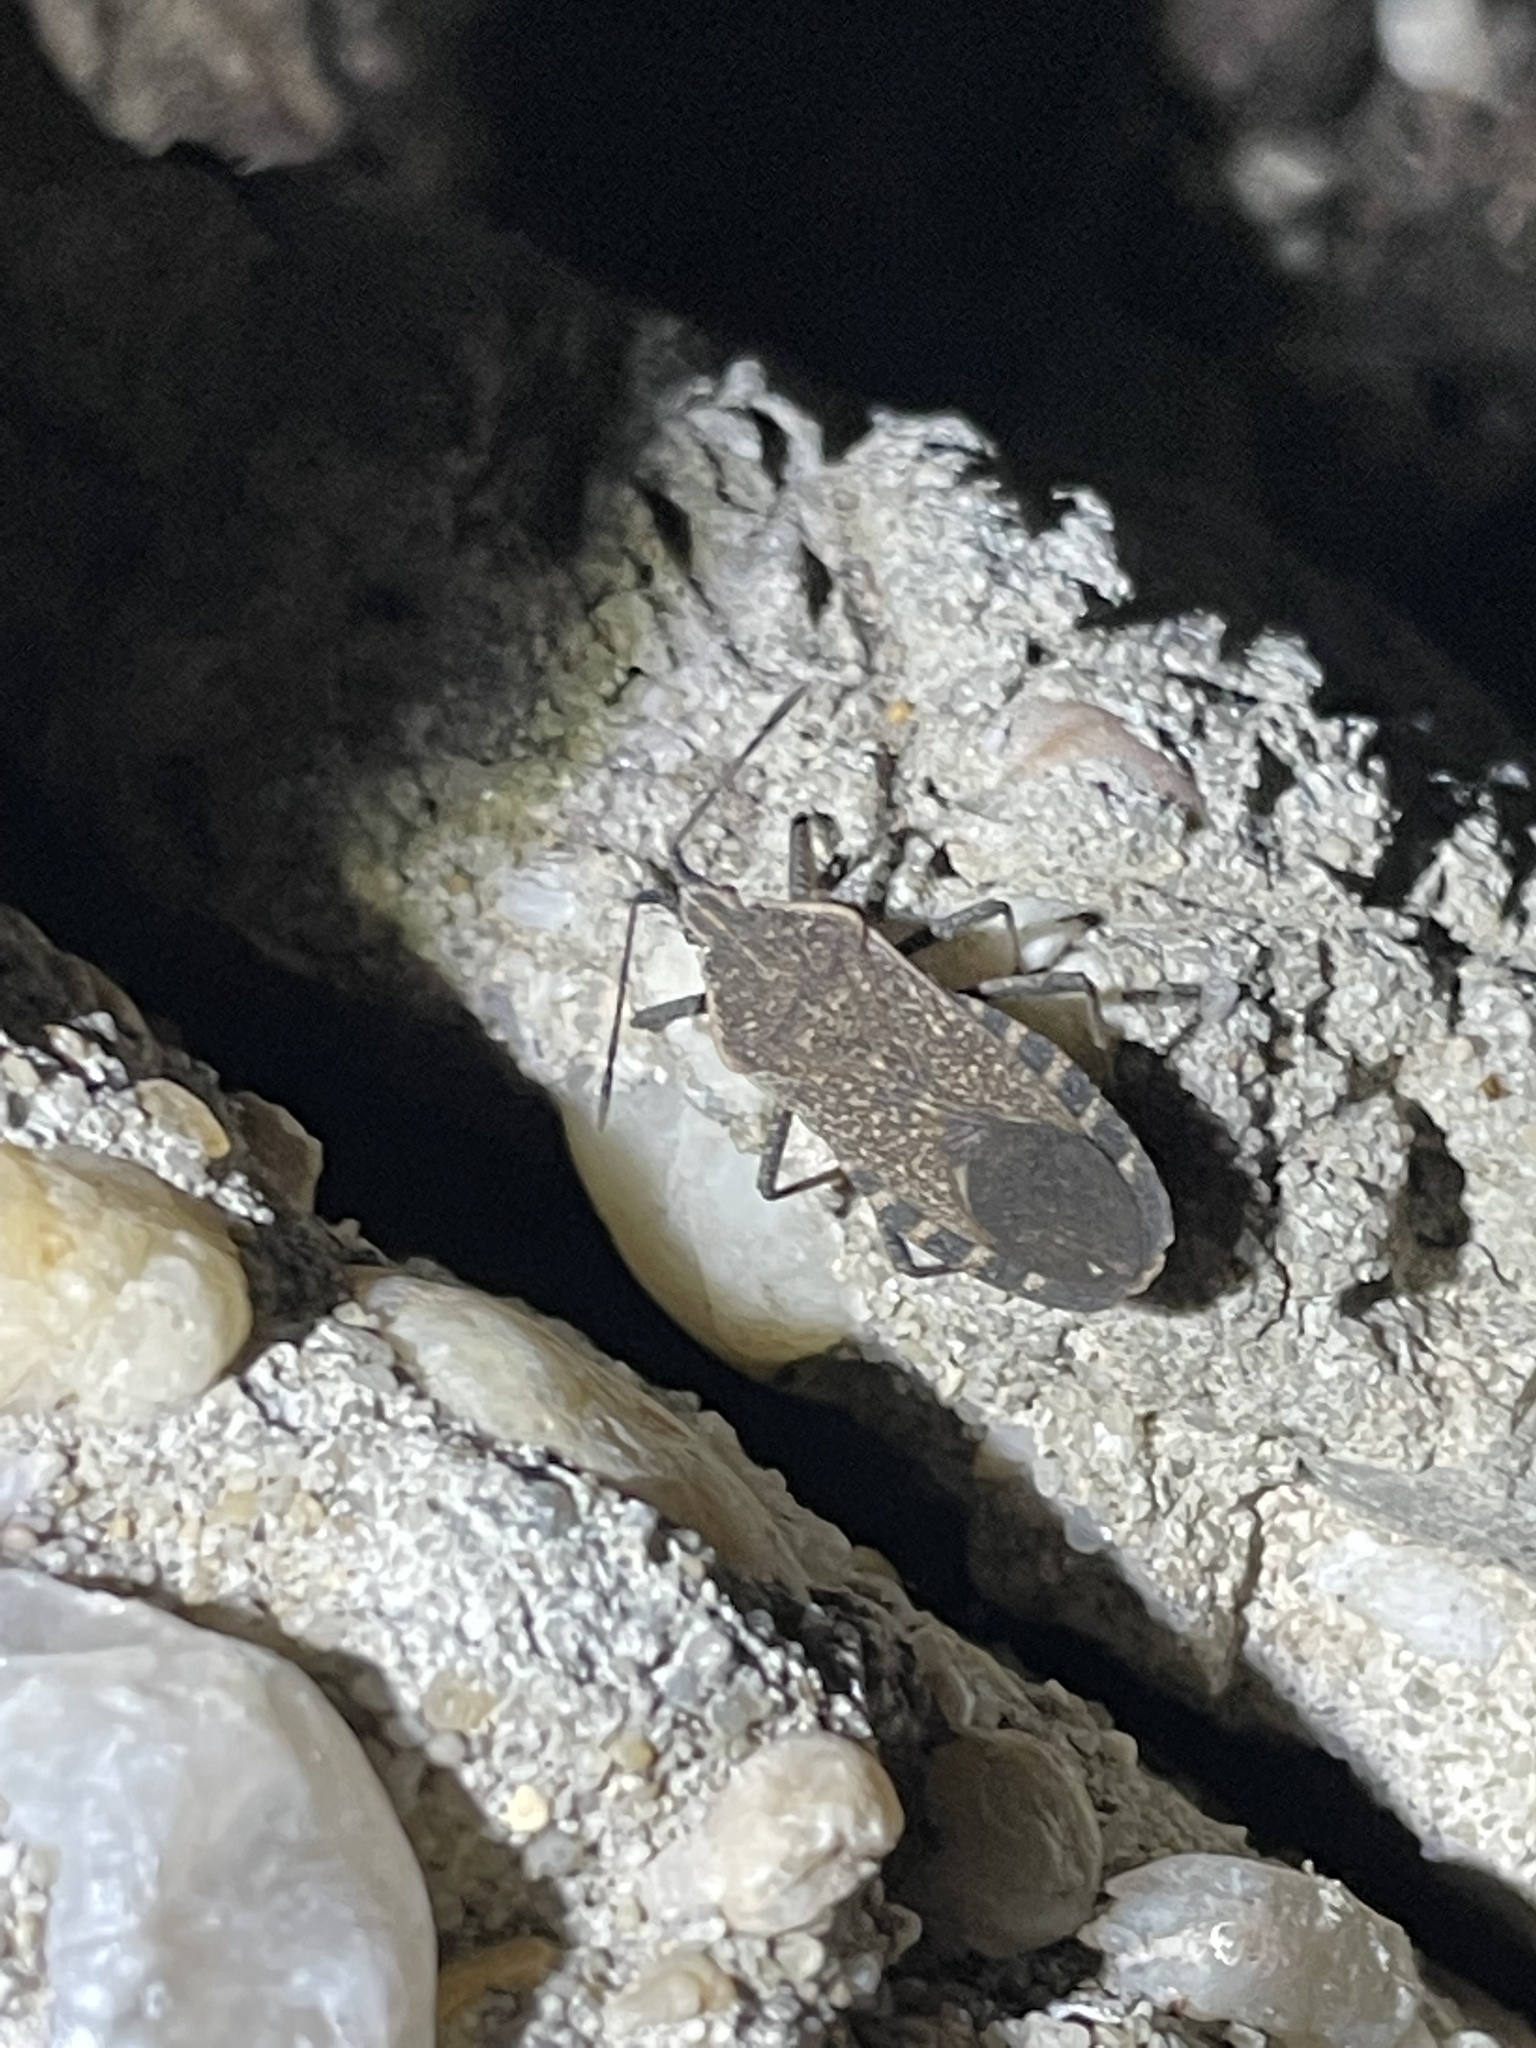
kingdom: Animalia
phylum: Arthropoda
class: Insecta
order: Hemiptera
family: Coreidae
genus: Anasa
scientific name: Anasa tristis
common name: Squash bug
